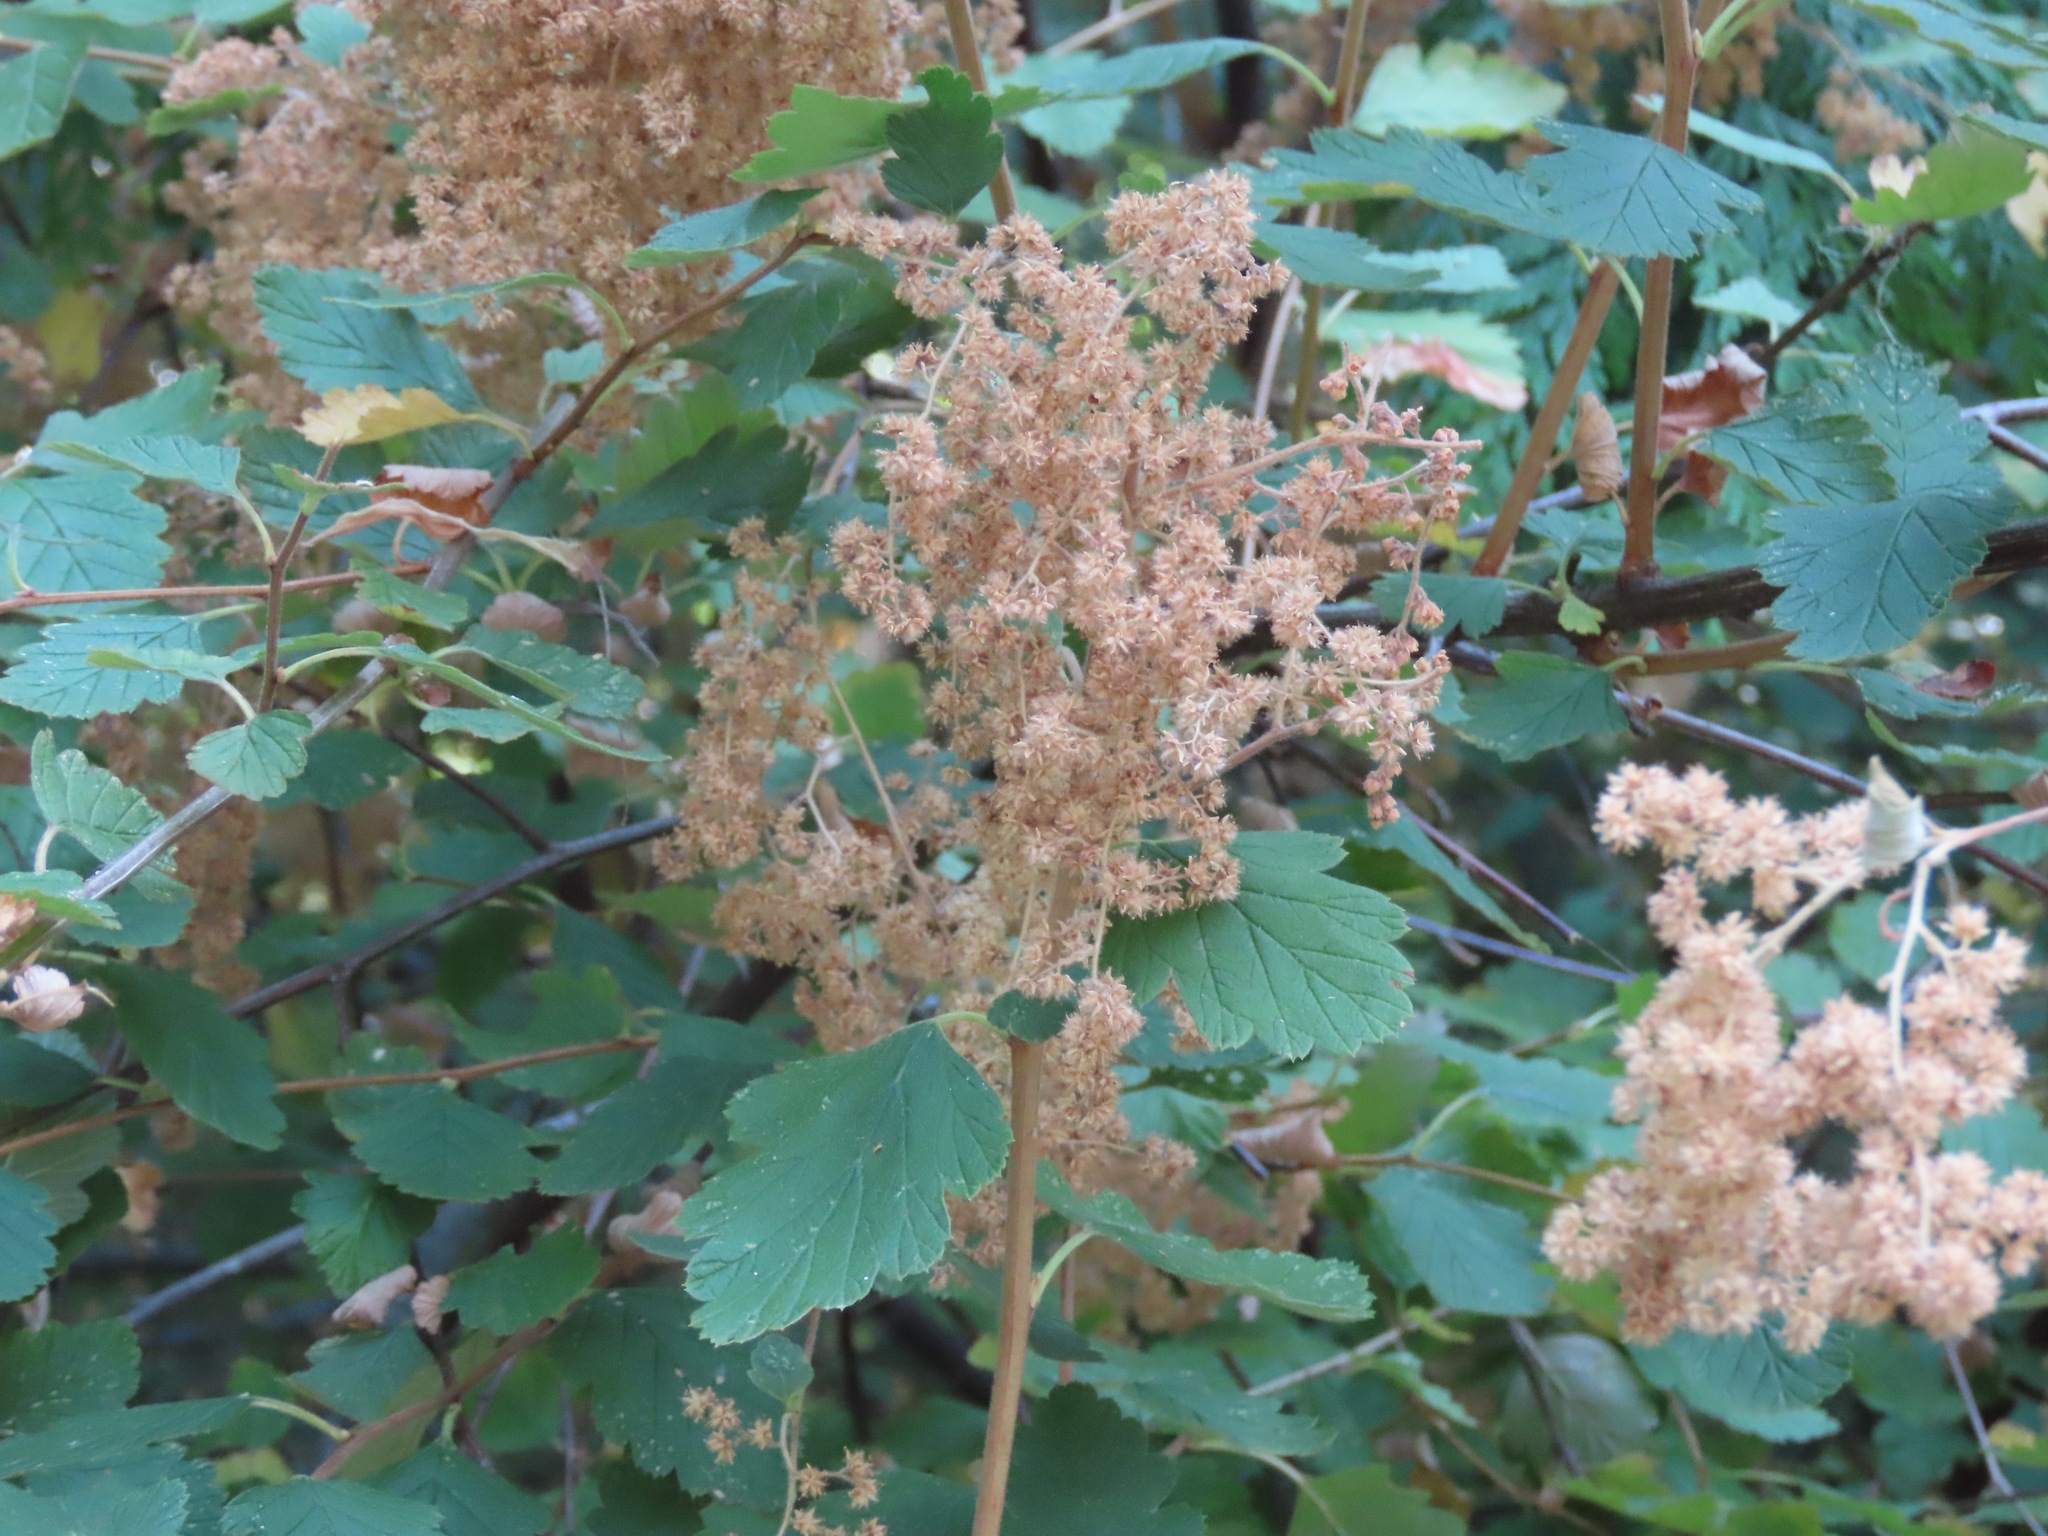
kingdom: Plantae
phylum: Tracheophyta
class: Magnoliopsida
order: Rosales
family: Rosaceae
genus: Holodiscus
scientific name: Holodiscus discolor
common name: Oceanspray
